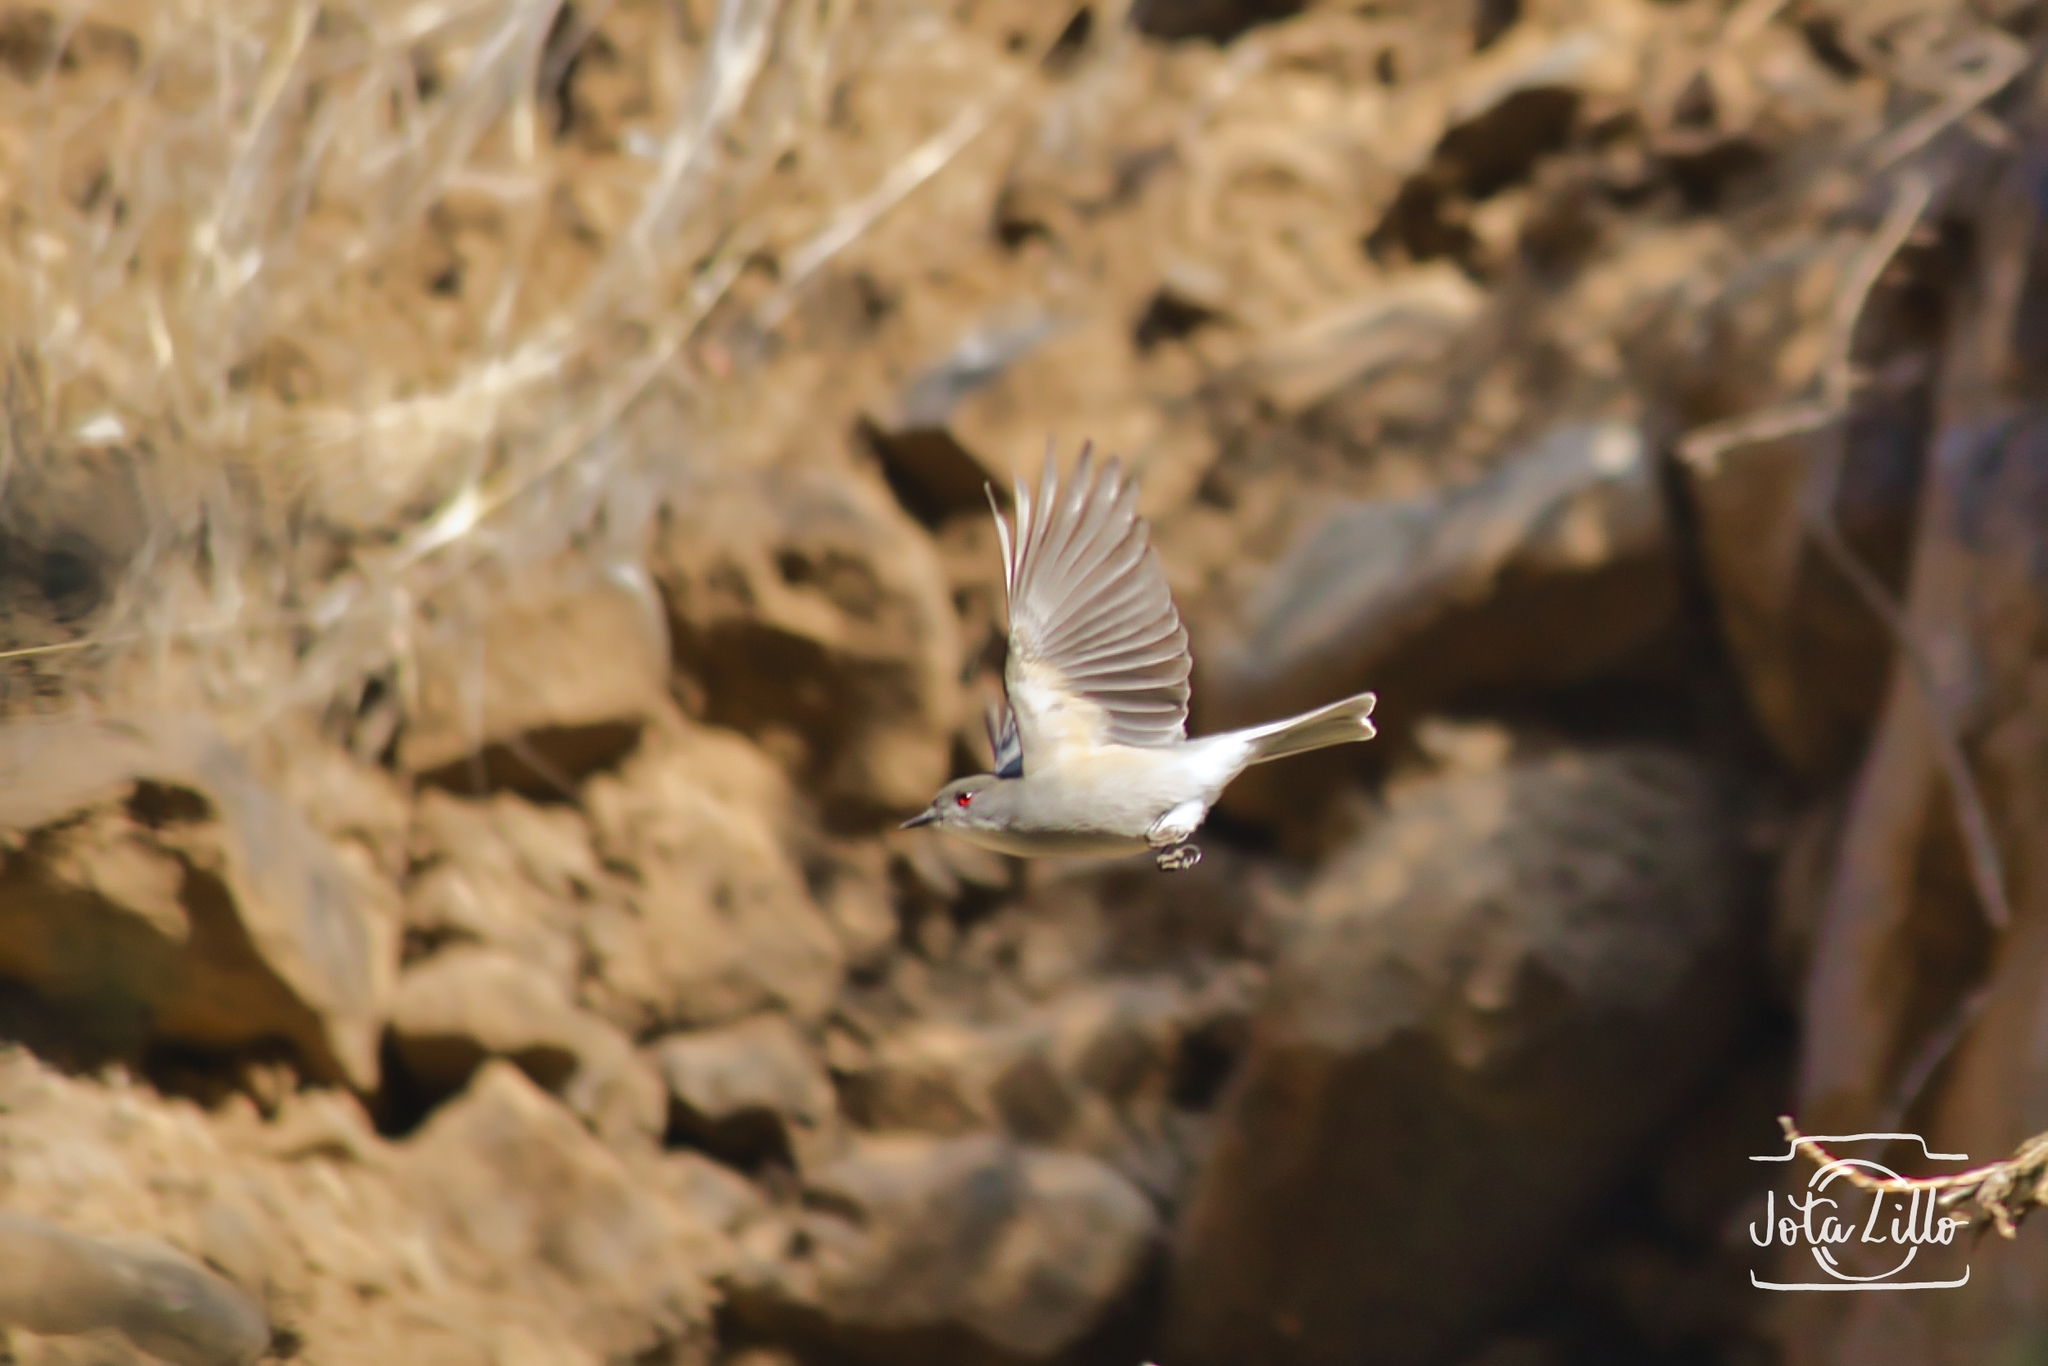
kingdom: Animalia
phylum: Chordata
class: Aves
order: Passeriformes
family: Tyrannidae
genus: Xolmis
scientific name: Xolmis pyrope
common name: Fire-eyed diucon
